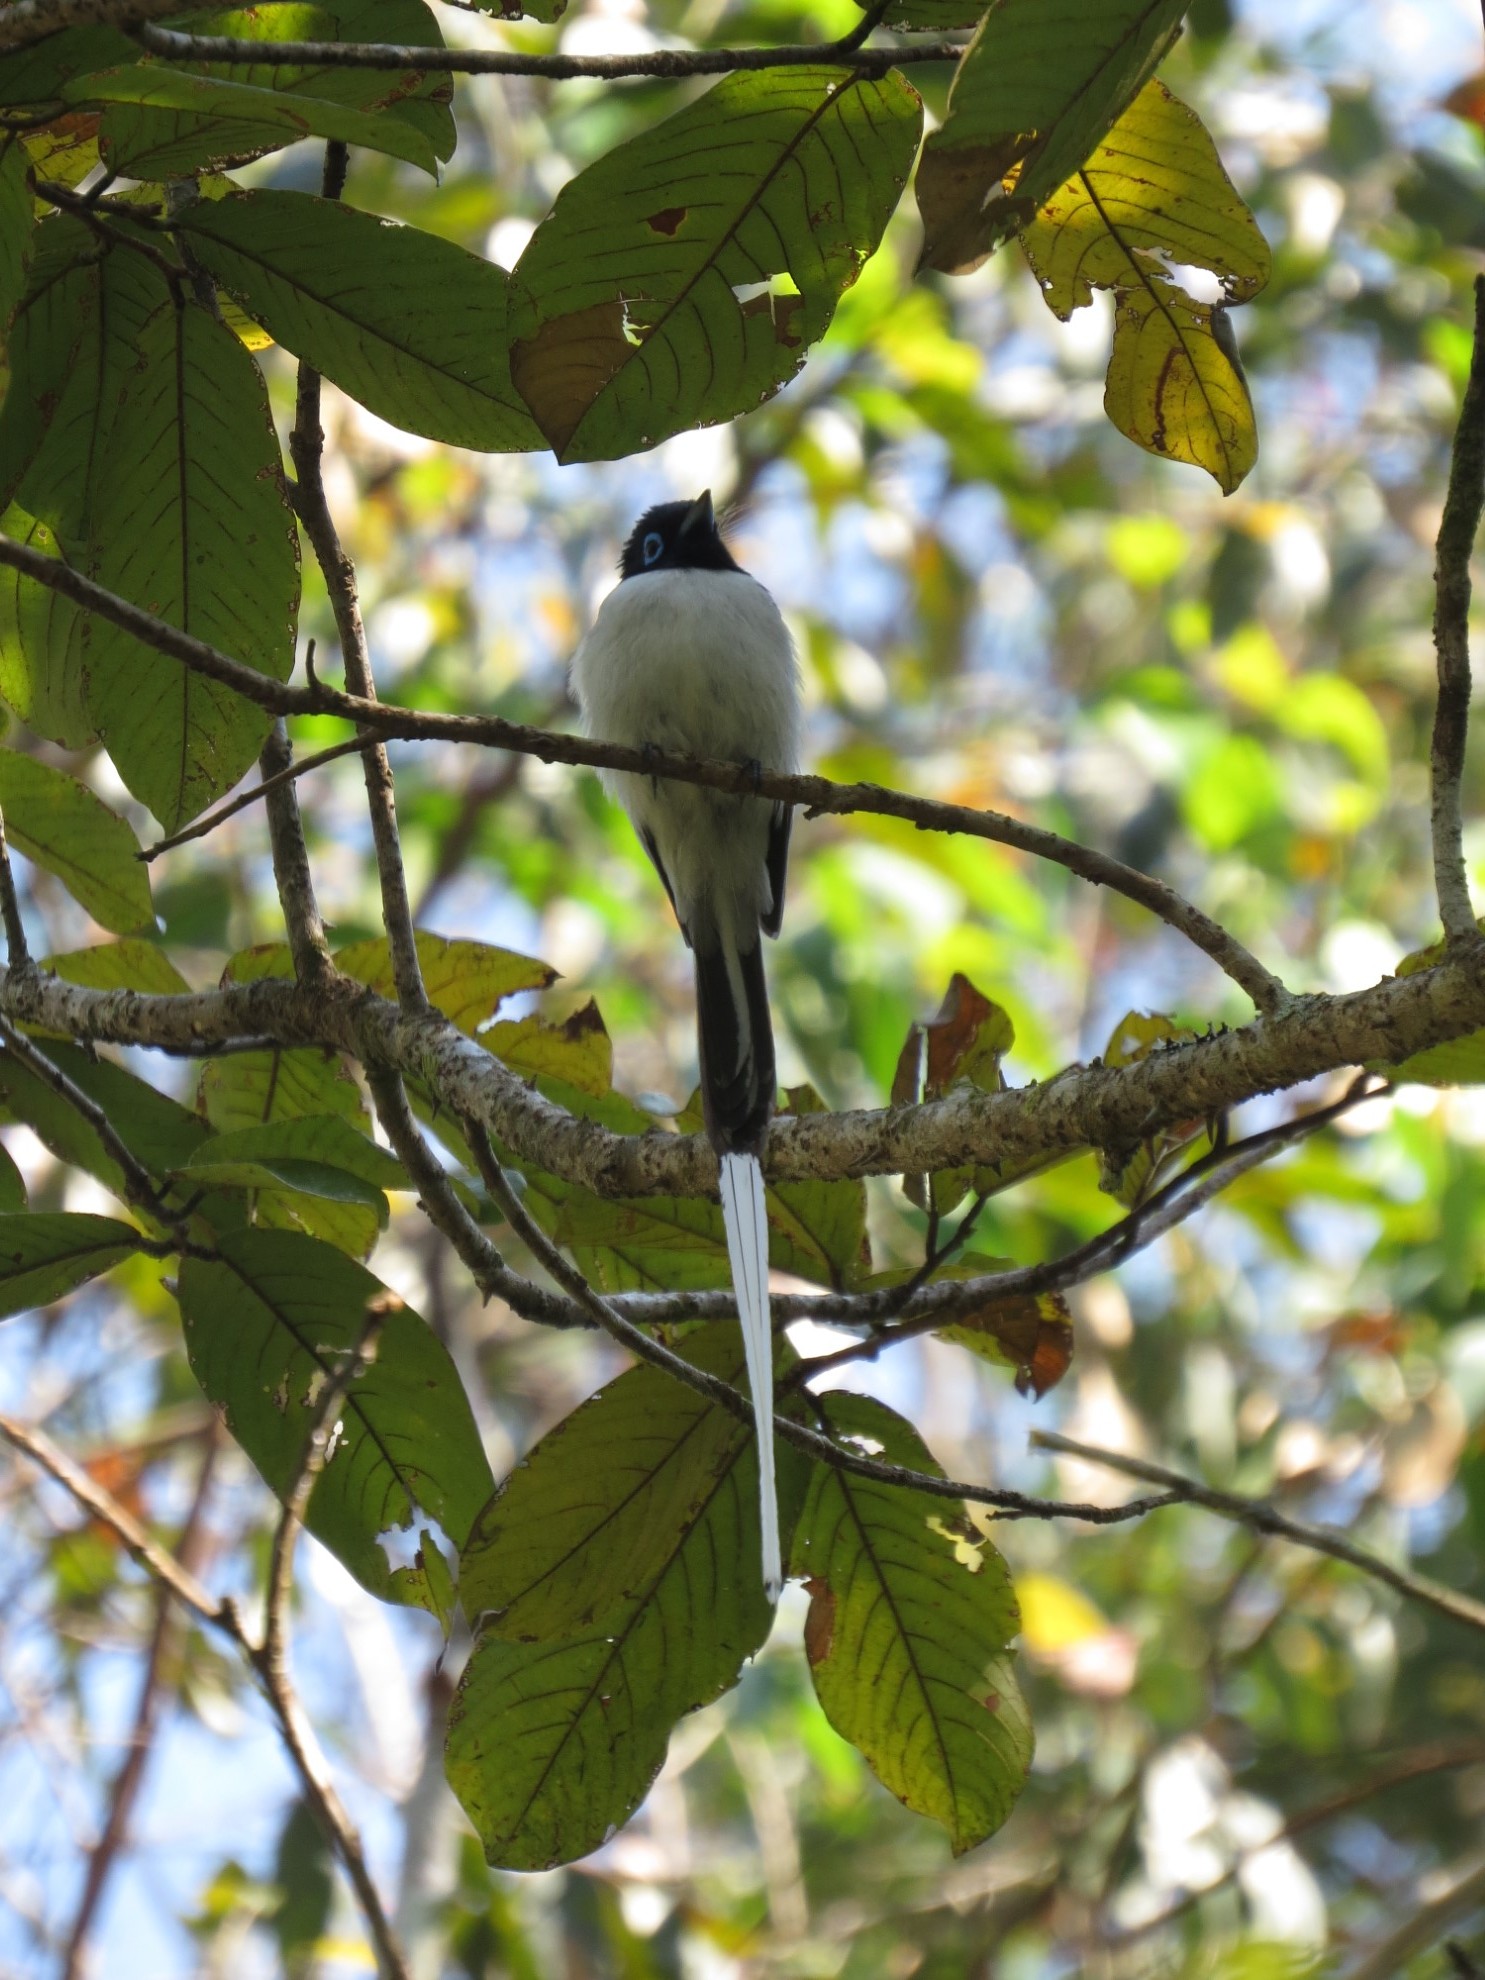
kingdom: Animalia
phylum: Chordata
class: Aves
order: Passeriformes
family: Monarchidae
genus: Terpsiphone
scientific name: Terpsiphone mutata
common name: Malagasy paradise flycatcher
